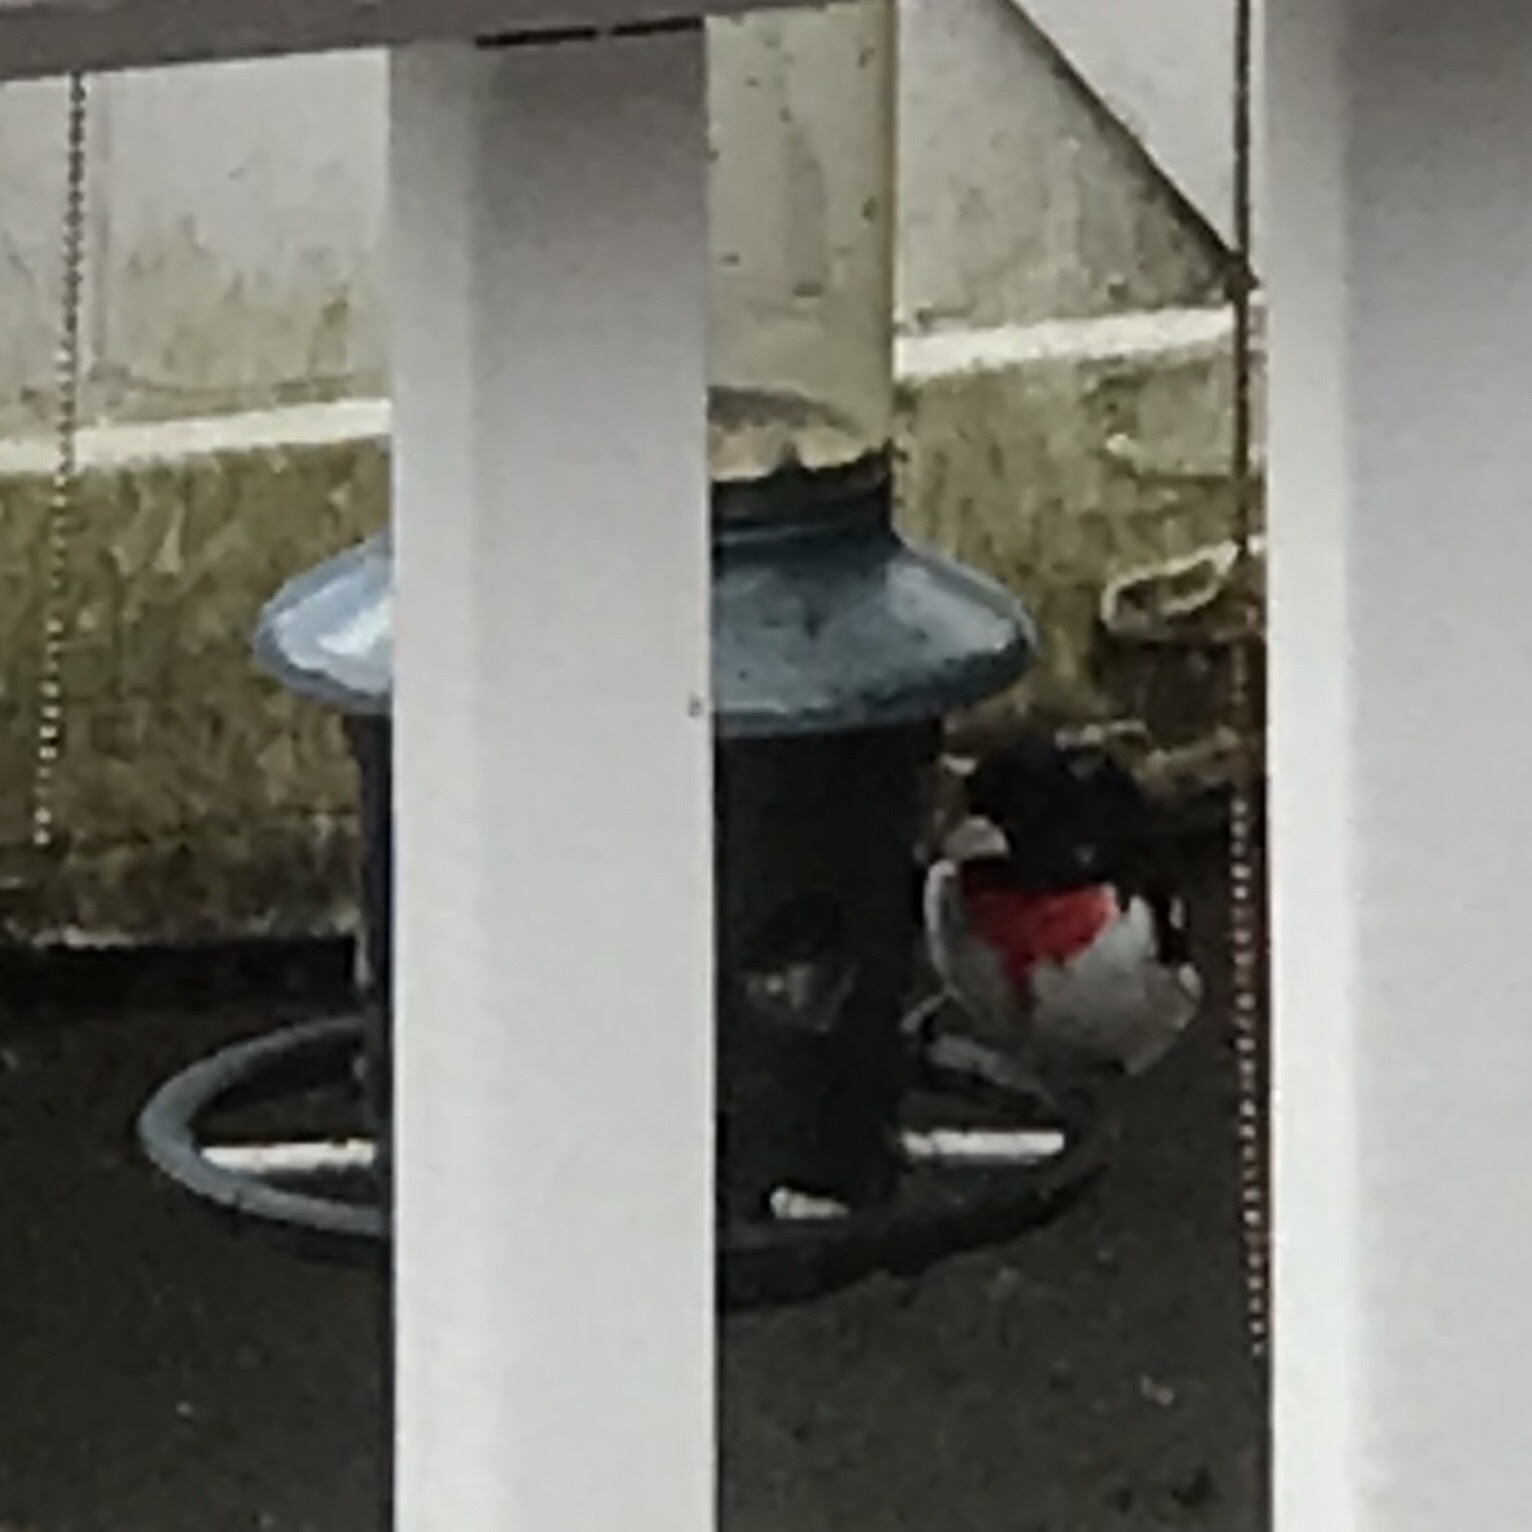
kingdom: Animalia
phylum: Chordata
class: Aves
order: Passeriformes
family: Cardinalidae
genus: Pheucticus
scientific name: Pheucticus ludovicianus
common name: Rose-breasted grosbeak
